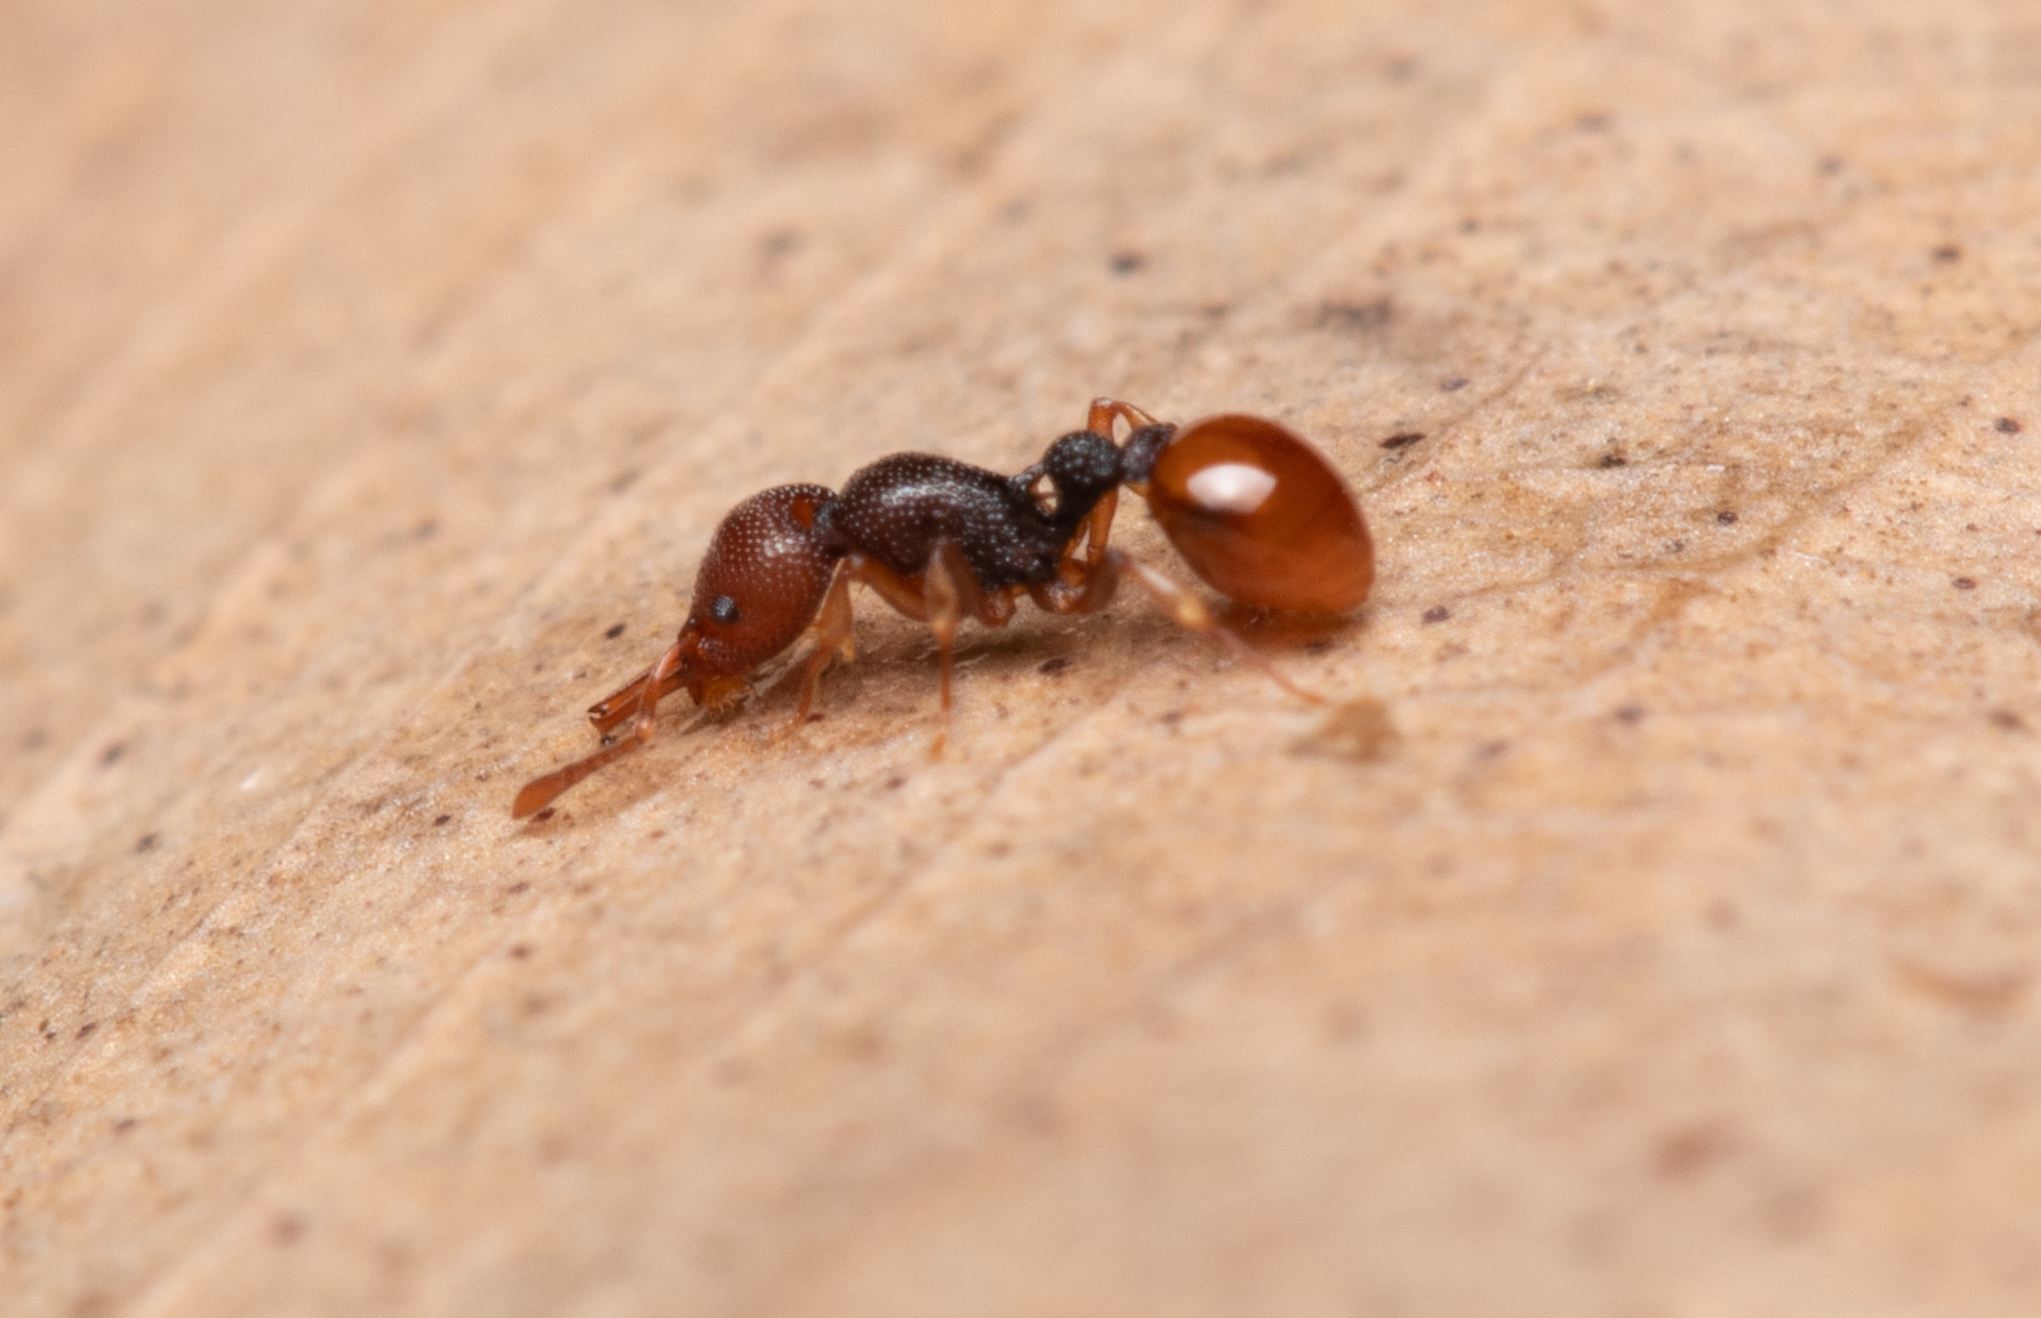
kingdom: Animalia
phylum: Arthropoda
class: Insecta
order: Hymenoptera
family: Formicidae
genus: Epopostruma
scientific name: Epopostruma
